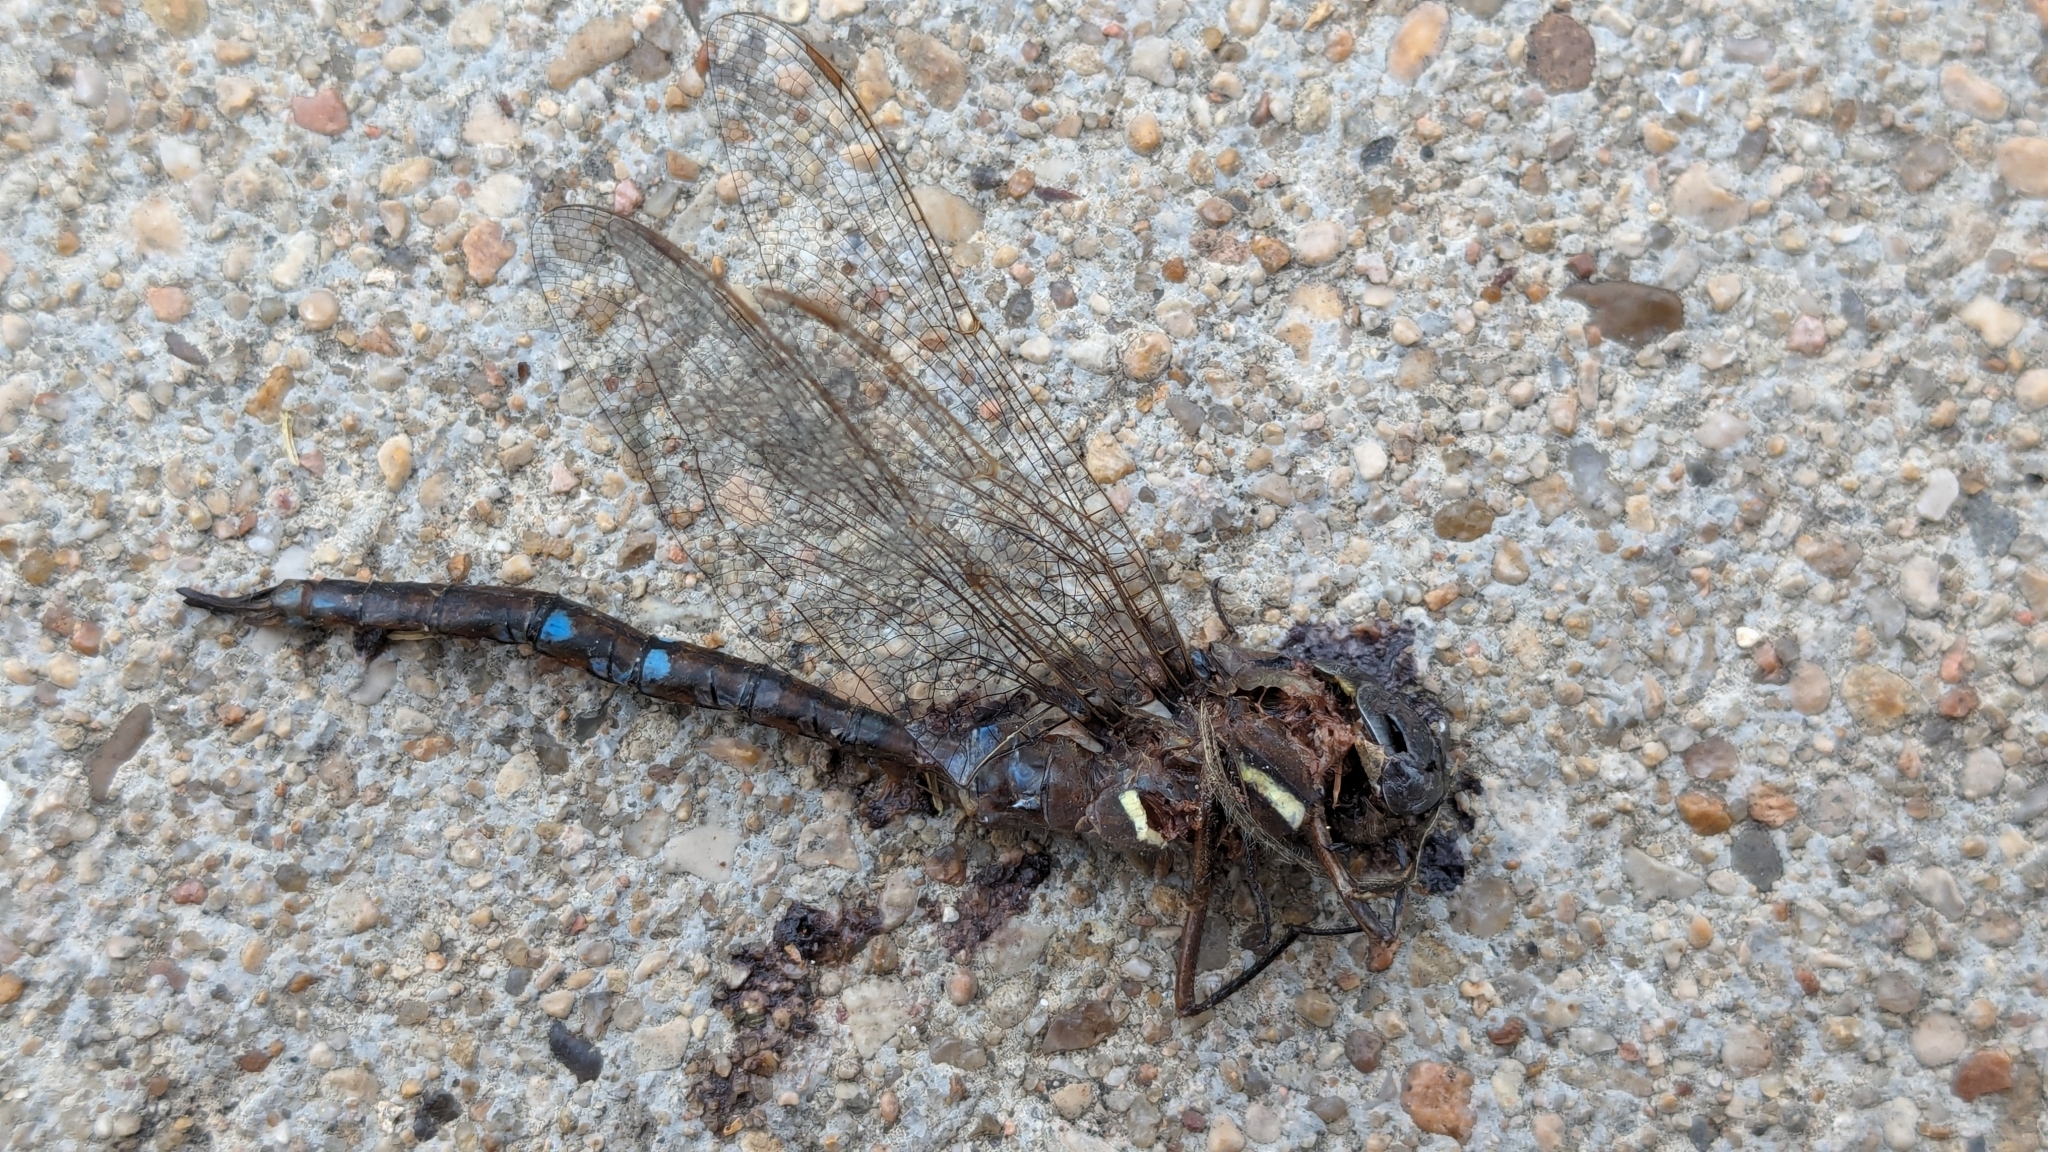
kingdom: Animalia
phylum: Arthropoda
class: Insecta
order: Odonata
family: Aeshnidae
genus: Basiaeschna
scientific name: Basiaeschna janata
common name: Springtime darner
